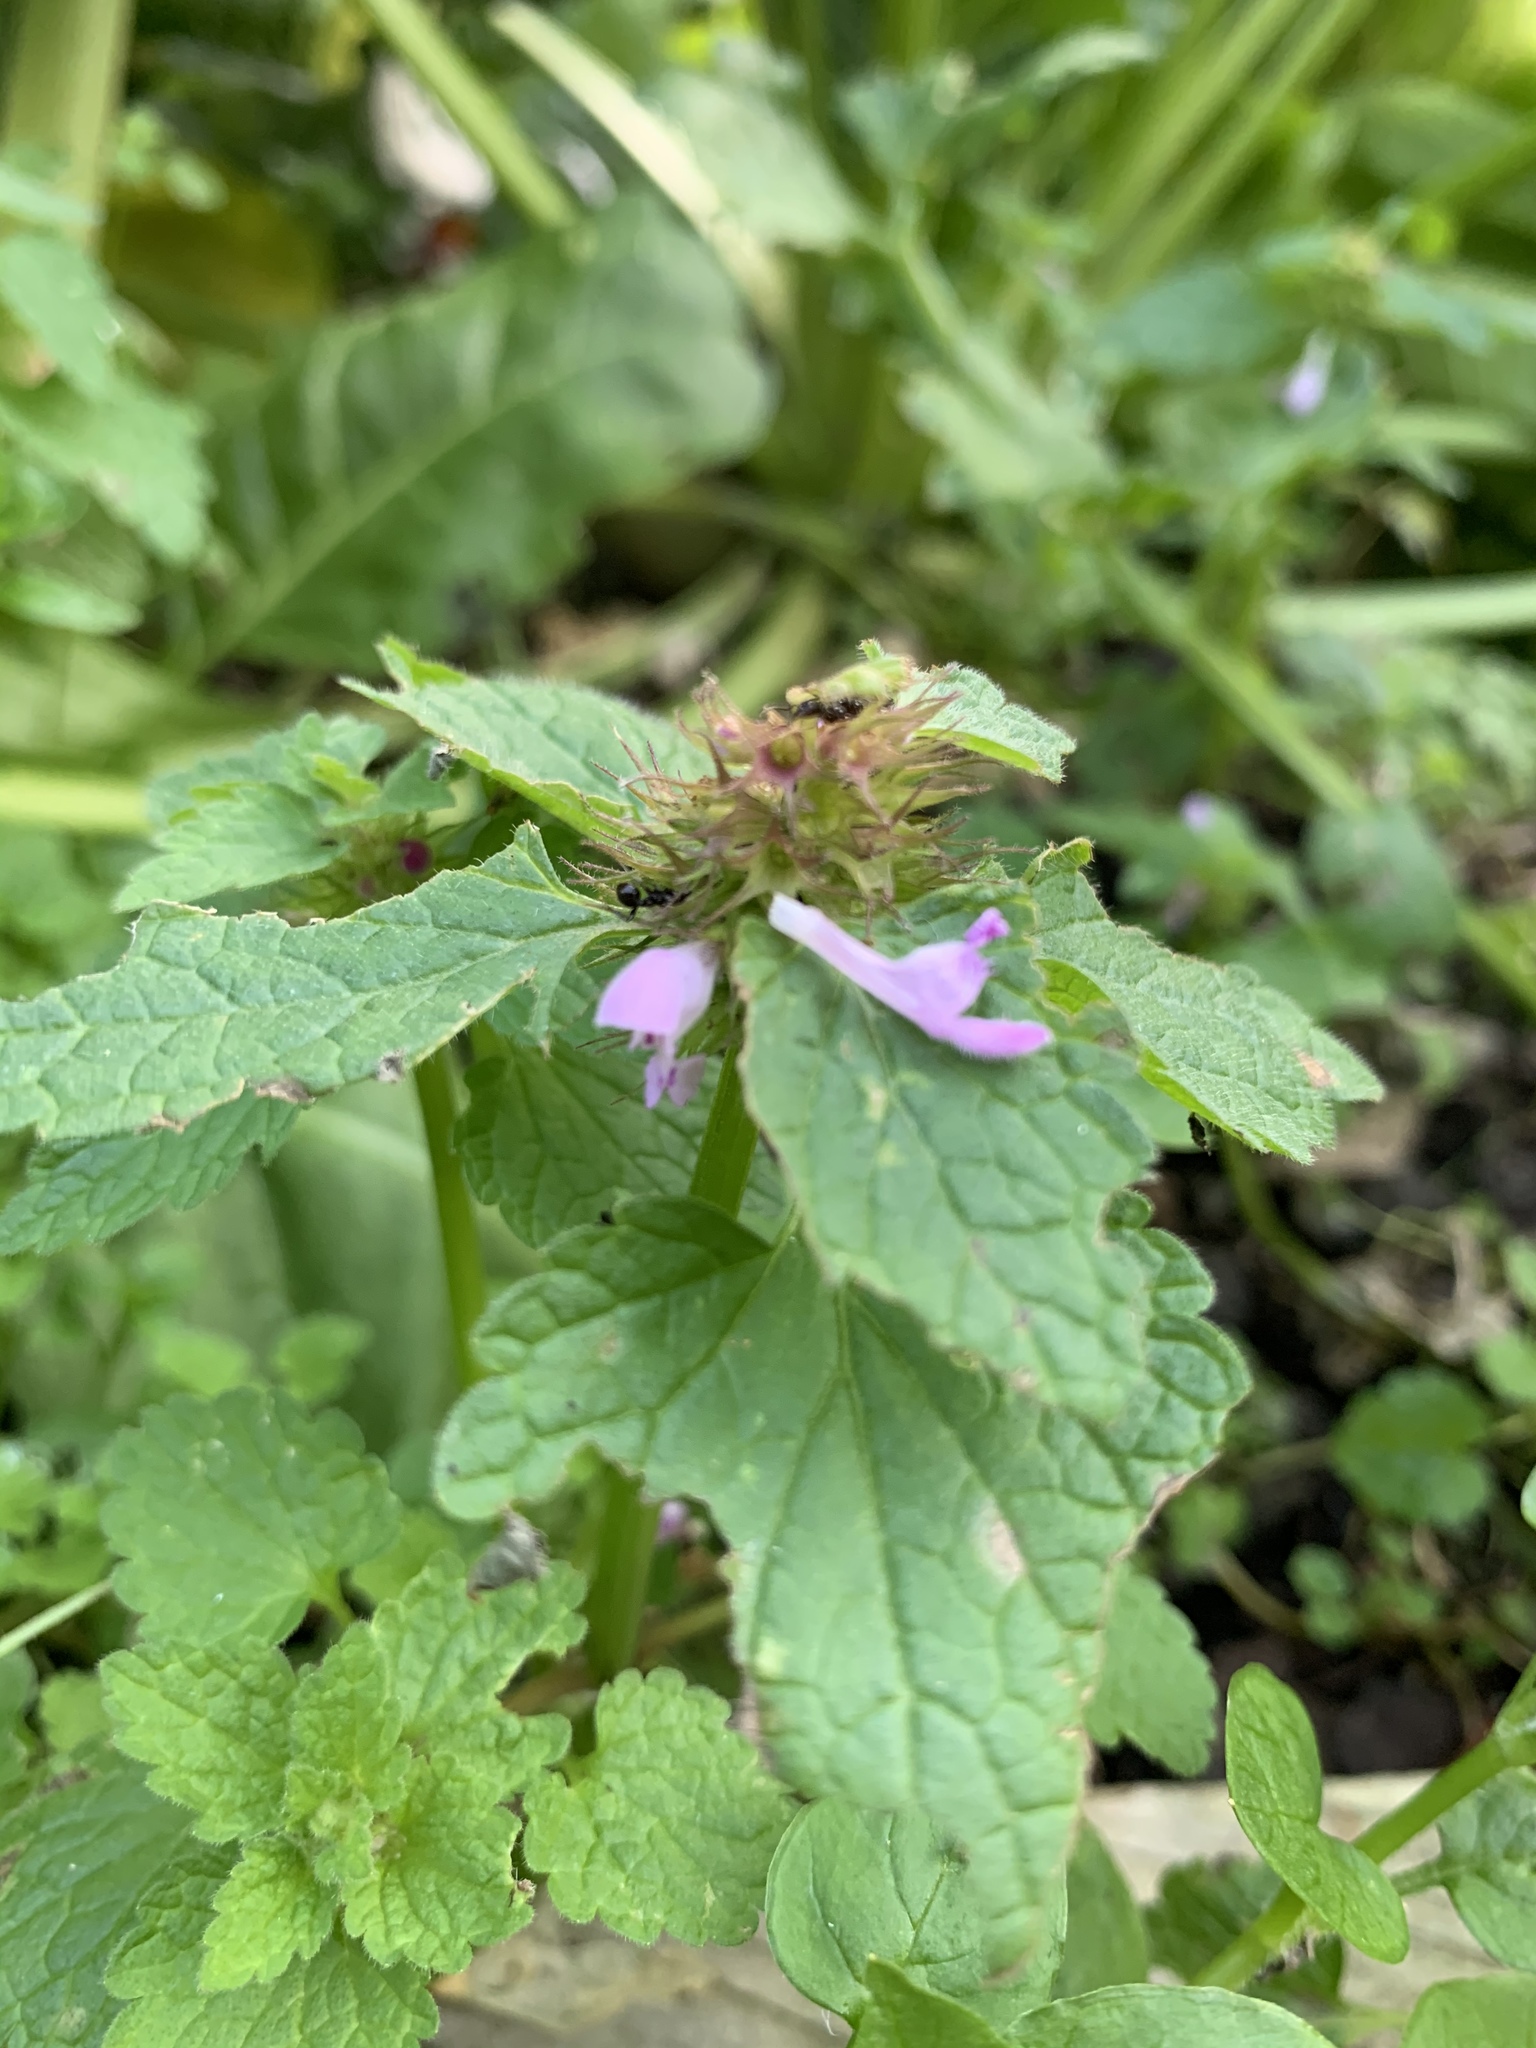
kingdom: Plantae
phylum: Tracheophyta
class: Magnoliopsida
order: Lamiales
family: Lamiaceae
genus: Lamium
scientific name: Lamium purpureum
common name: Red dead-nettle
